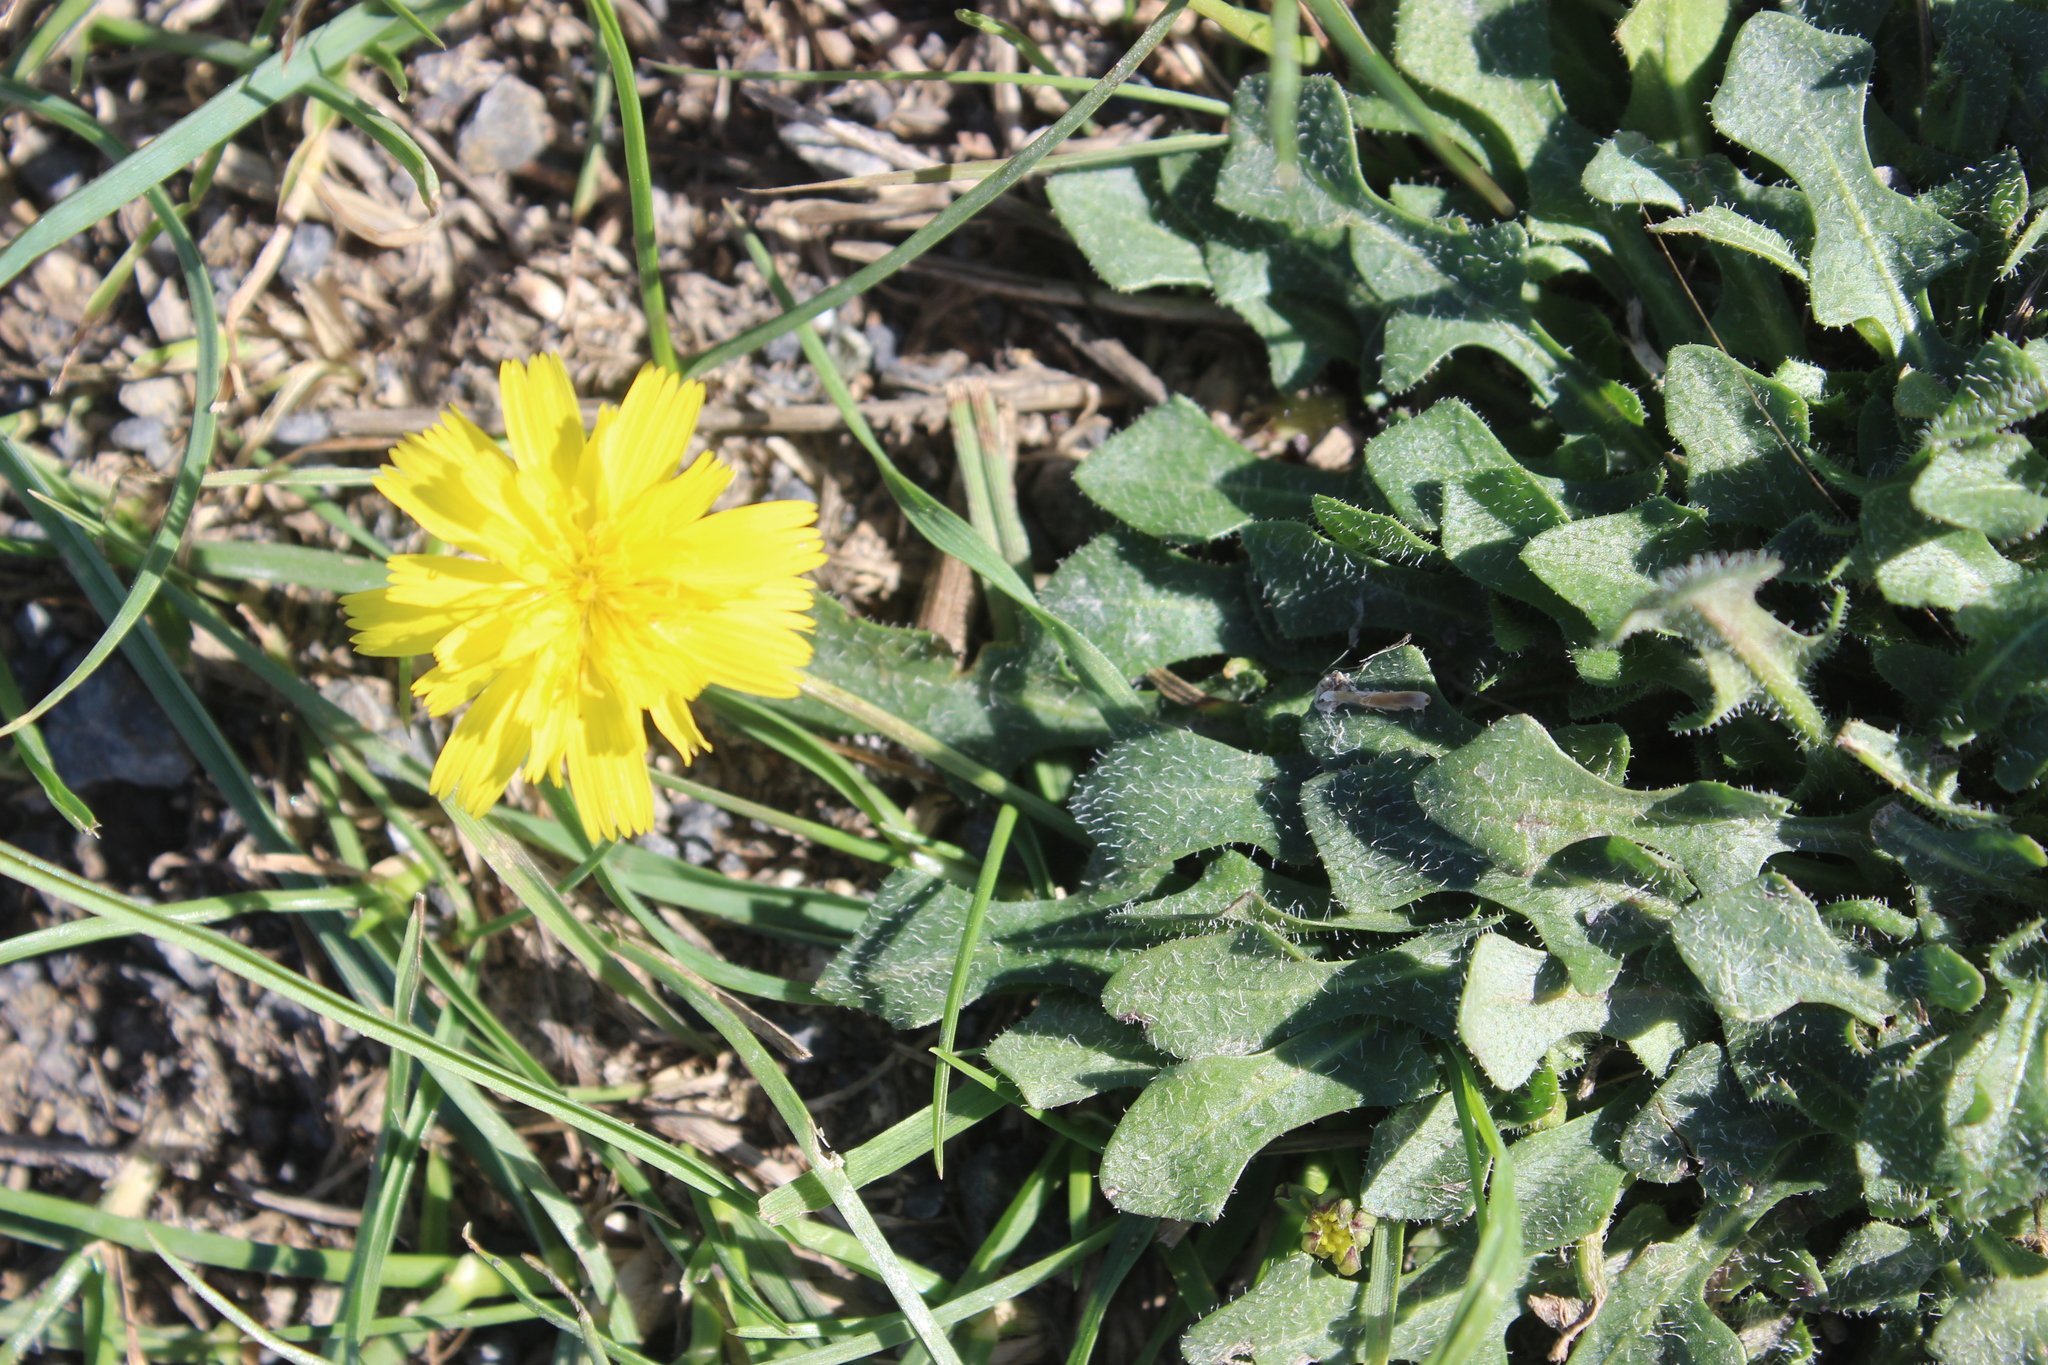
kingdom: Plantae
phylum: Tracheophyta
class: Magnoliopsida
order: Asterales
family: Asteraceae
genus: Hypochaeris
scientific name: Hypochaeris radicata
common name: Flatweed
